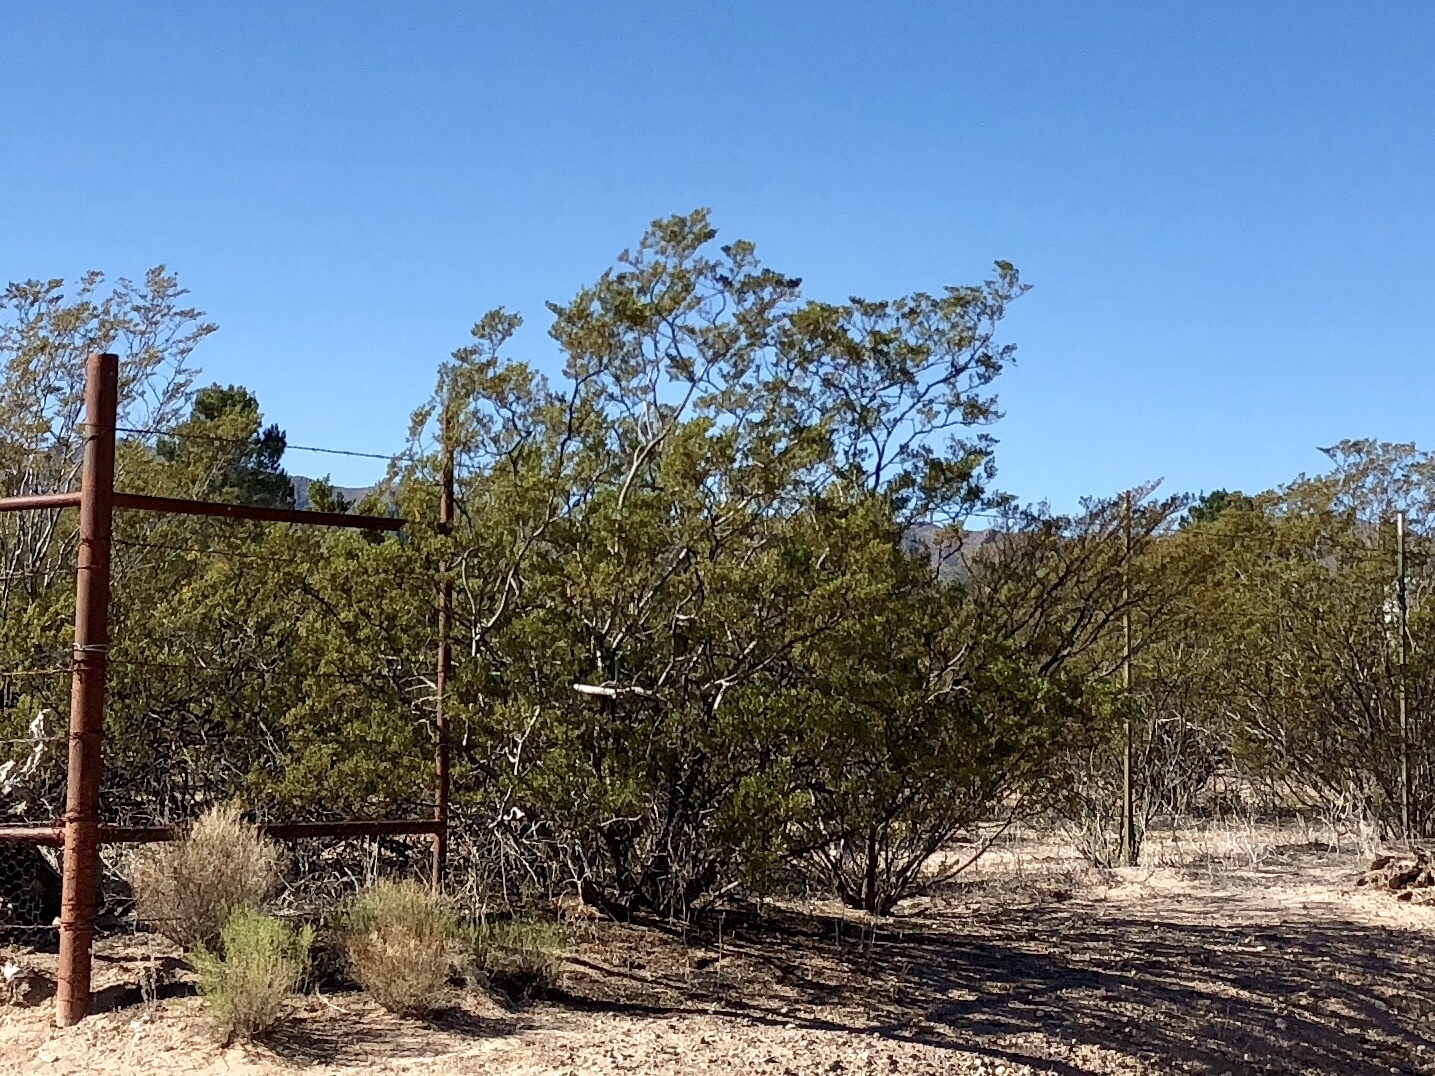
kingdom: Plantae
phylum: Tracheophyta
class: Magnoliopsida
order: Zygophyllales
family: Zygophyllaceae
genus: Larrea
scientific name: Larrea tridentata
